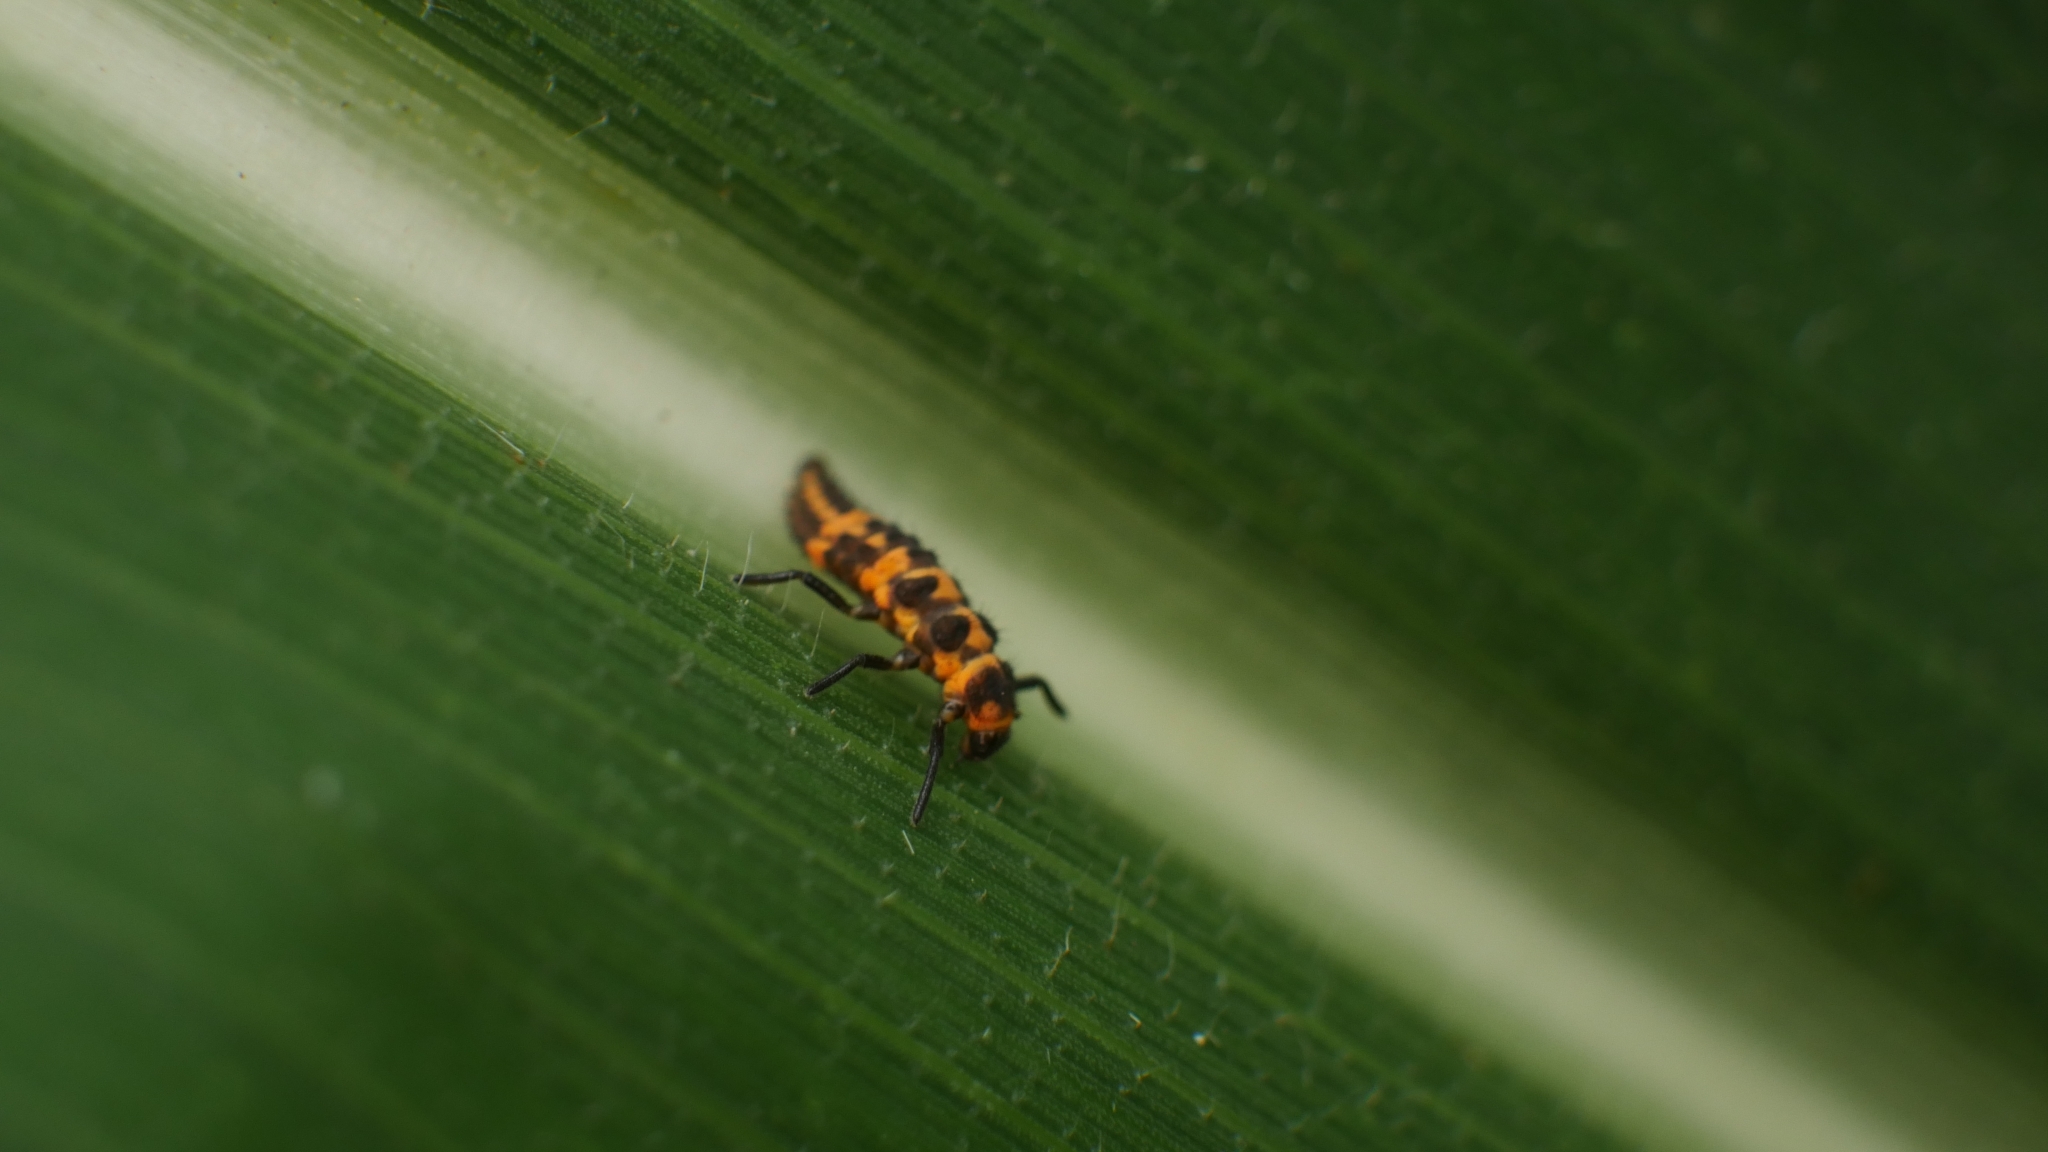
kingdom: Animalia
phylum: Arthropoda
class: Insecta
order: Coleoptera
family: Coccinellidae
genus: Coleomegilla
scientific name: Coleomegilla maculata
